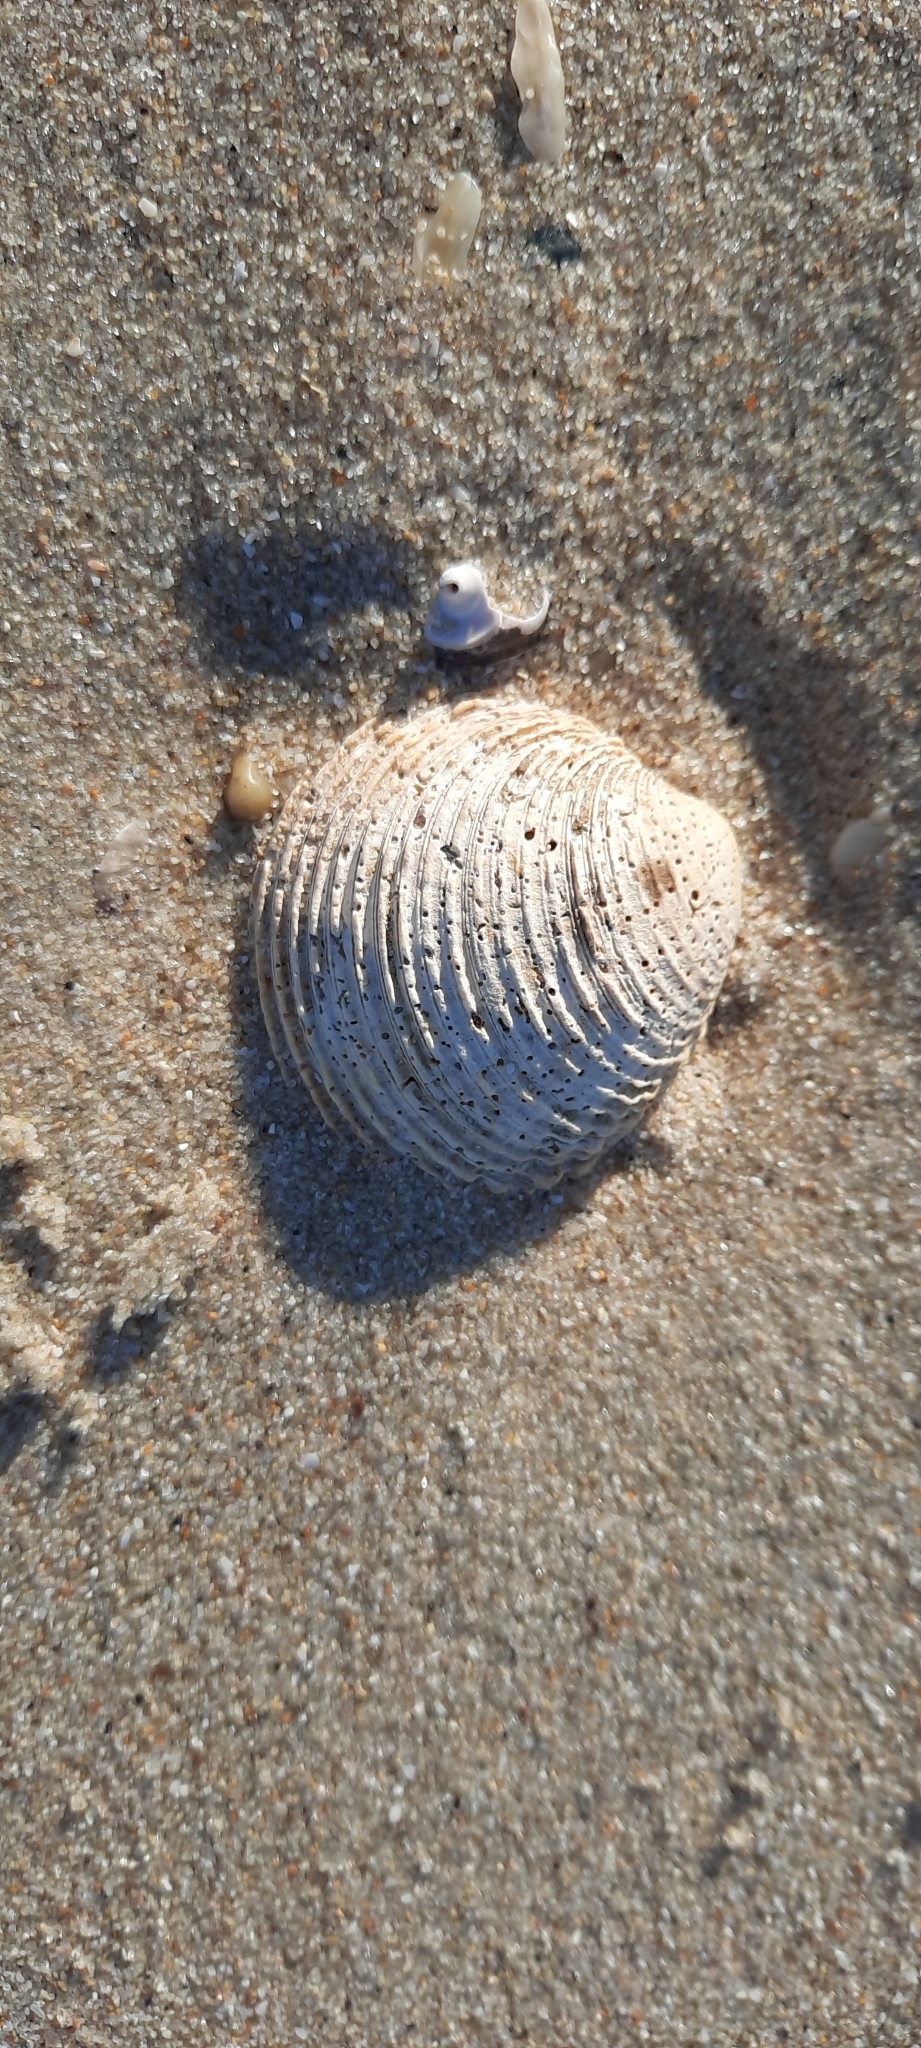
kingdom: Animalia
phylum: Mollusca
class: Bivalvia
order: Venerida
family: Veneridae
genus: Venus
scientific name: Venus verrucosa
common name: Warty venus
